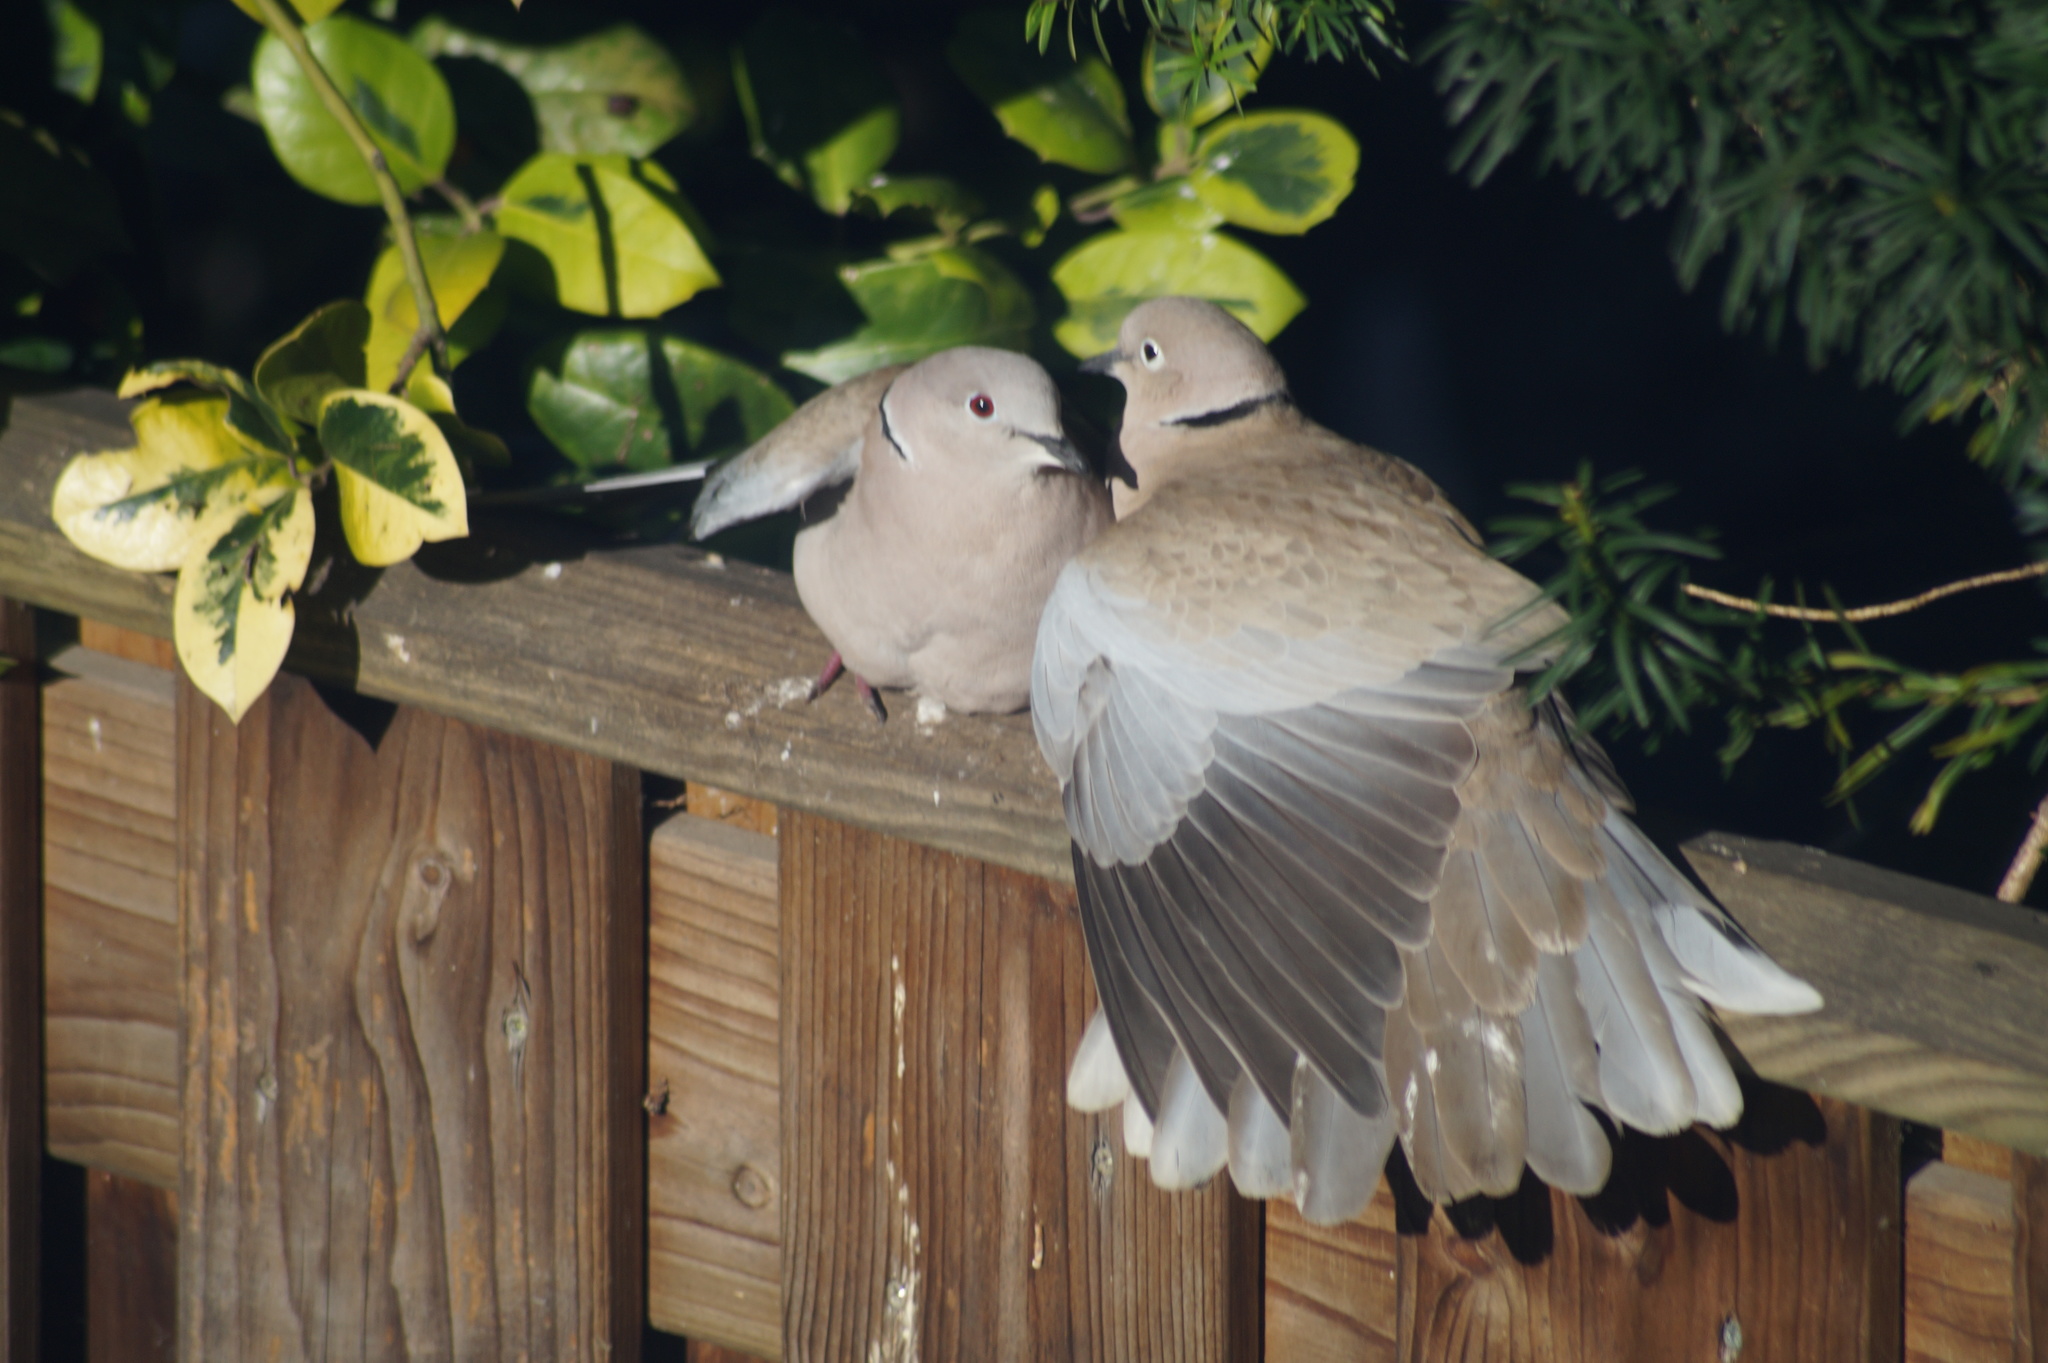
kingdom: Animalia
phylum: Chordata
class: Aves
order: Columbiformes
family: Columbidae
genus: Streptopelia
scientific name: Streptopelia decaocto
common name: Eurasian collared dove
